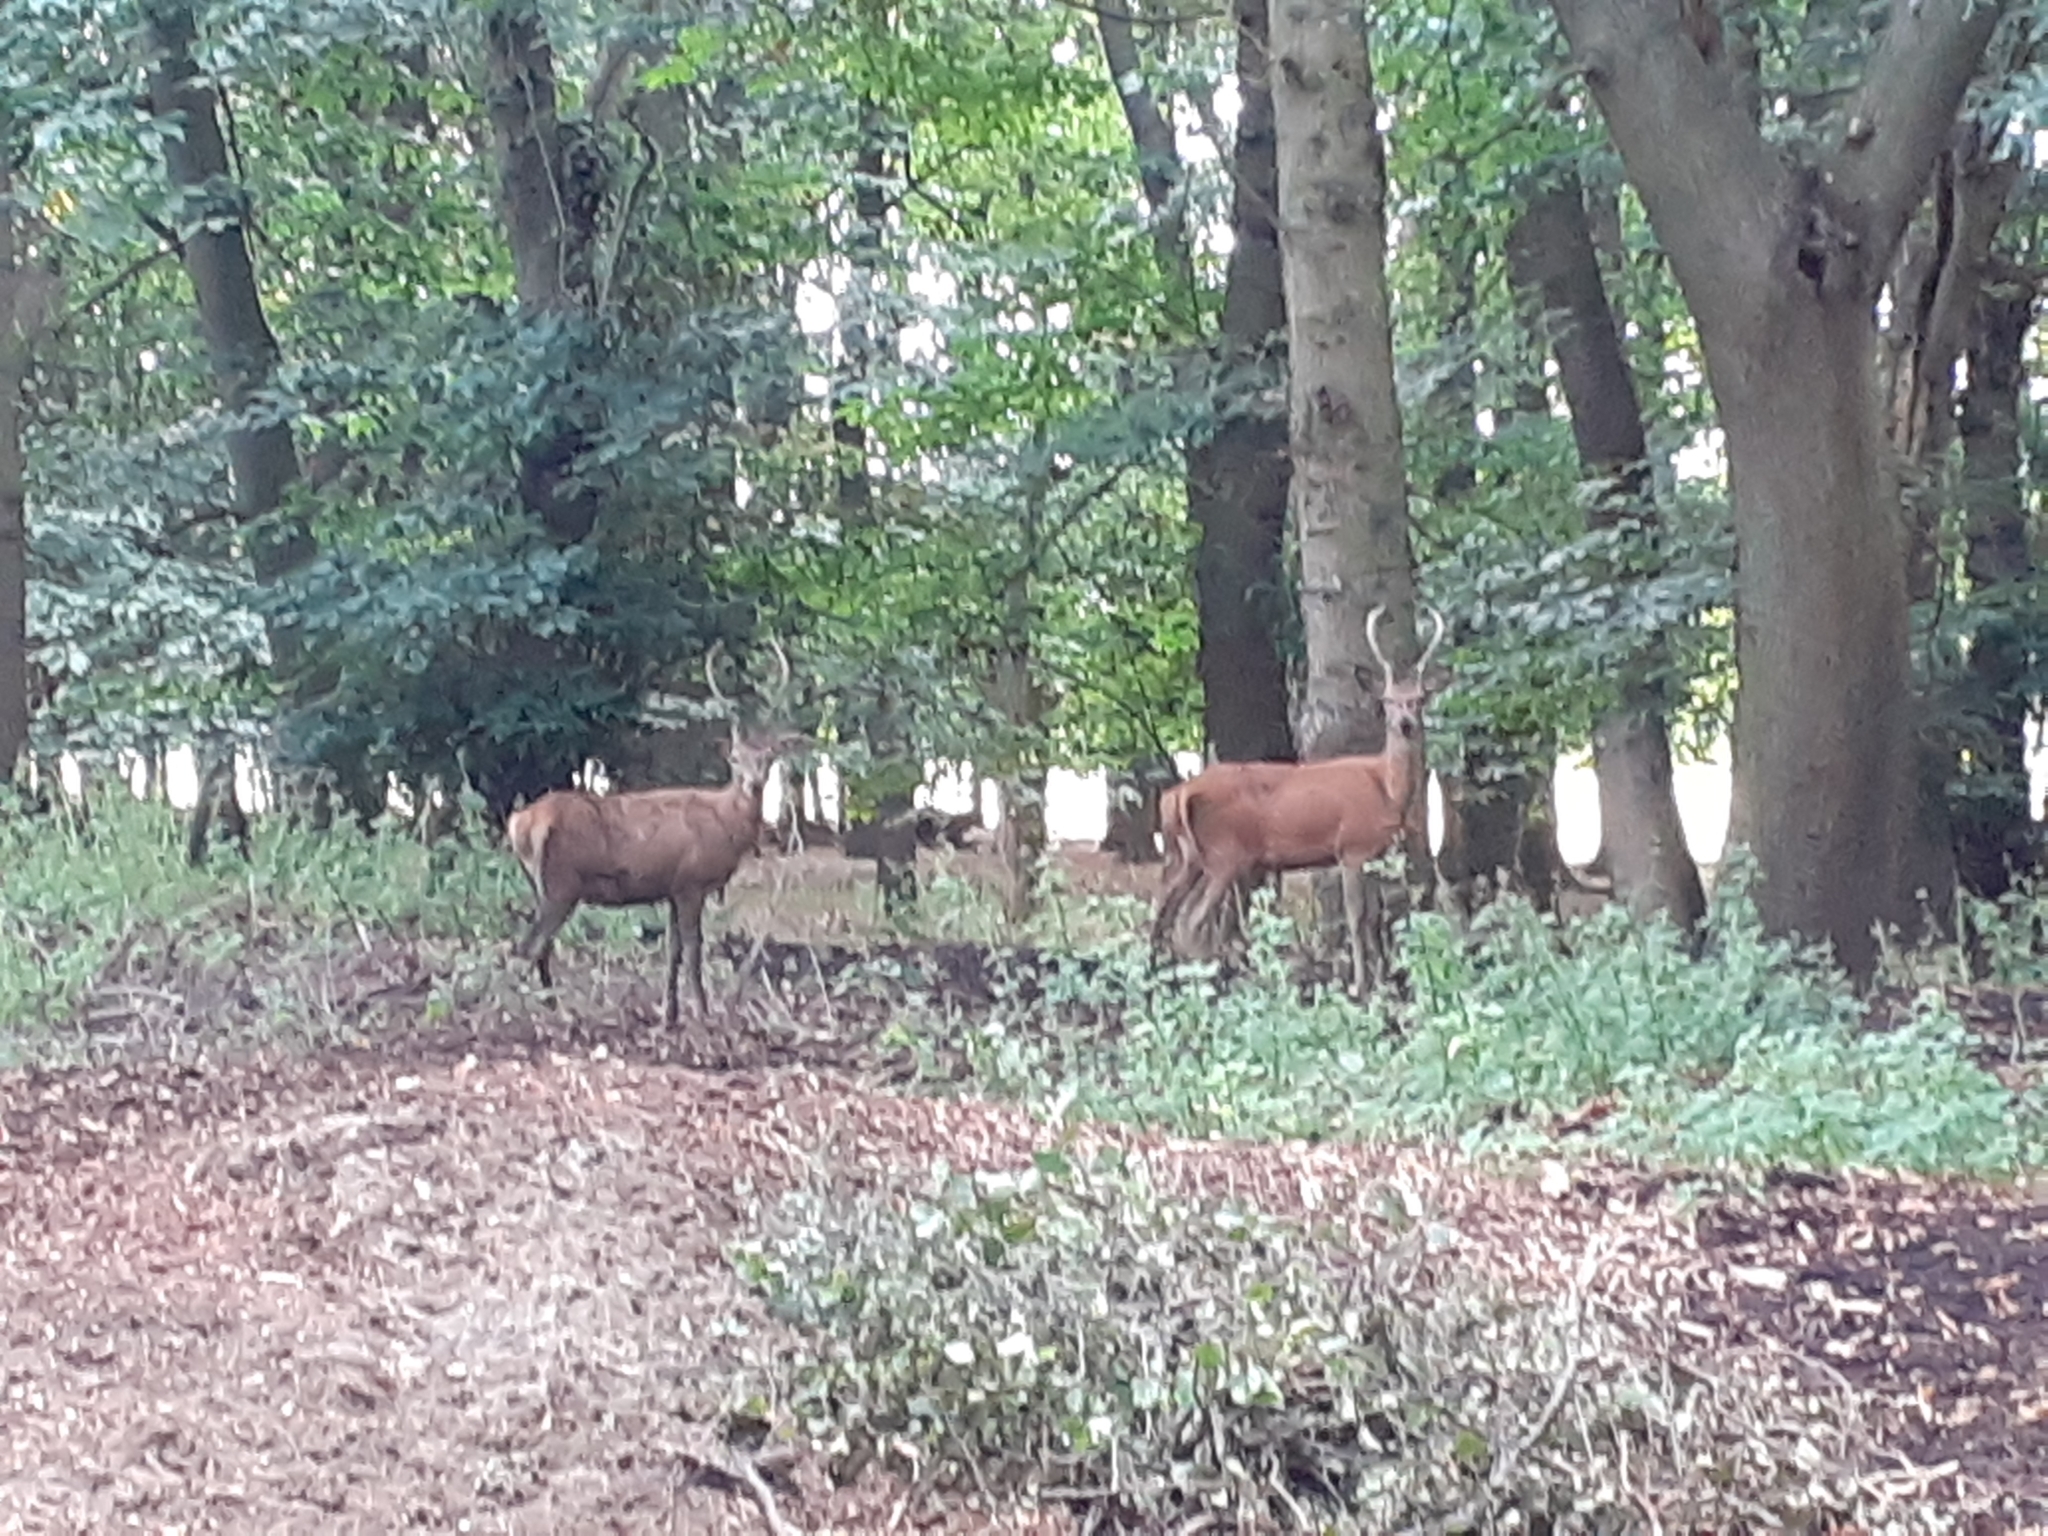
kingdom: Animalia
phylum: Chordata
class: Mammalia
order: Artiodactyla
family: Cervidae
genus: Cervus
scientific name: Cervus elaphus
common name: Red deer
